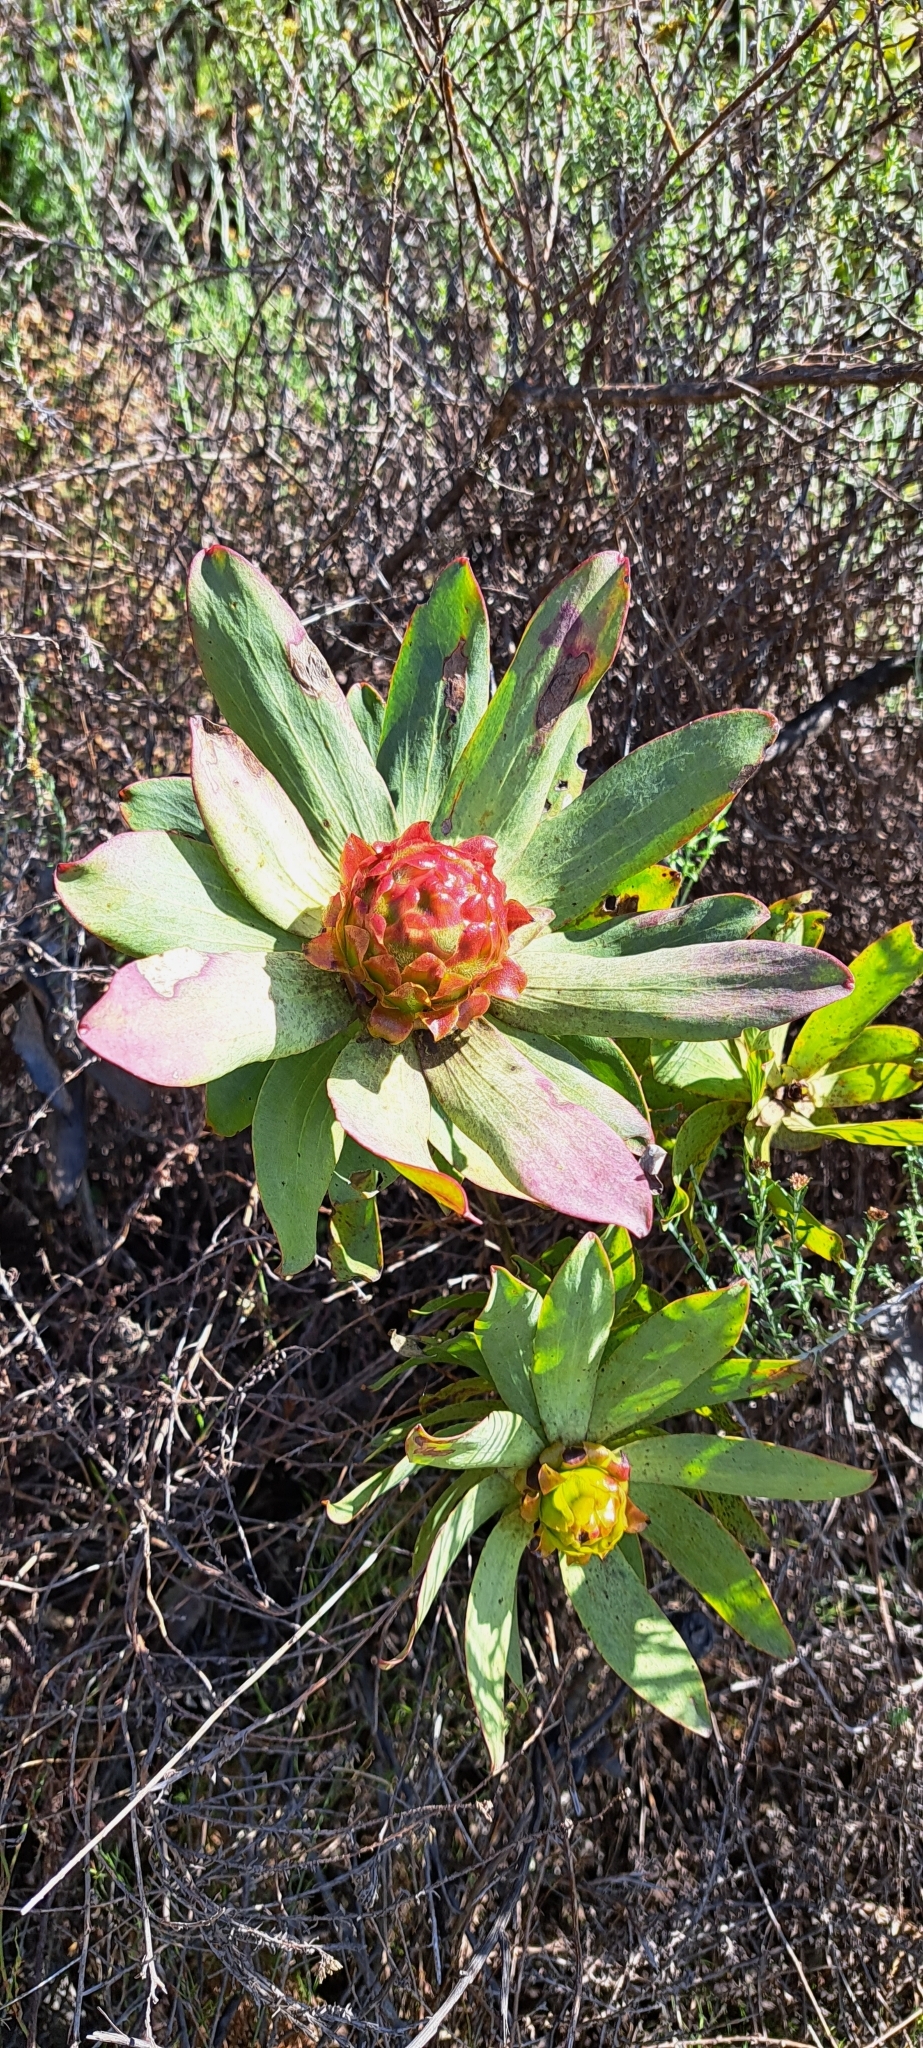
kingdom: Plantae
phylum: Tracheophyta
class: Magnoliopsida
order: Proteales
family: Proteaceae
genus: Leucadendron
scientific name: Leucadendron tinctum
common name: Spicy conebush
